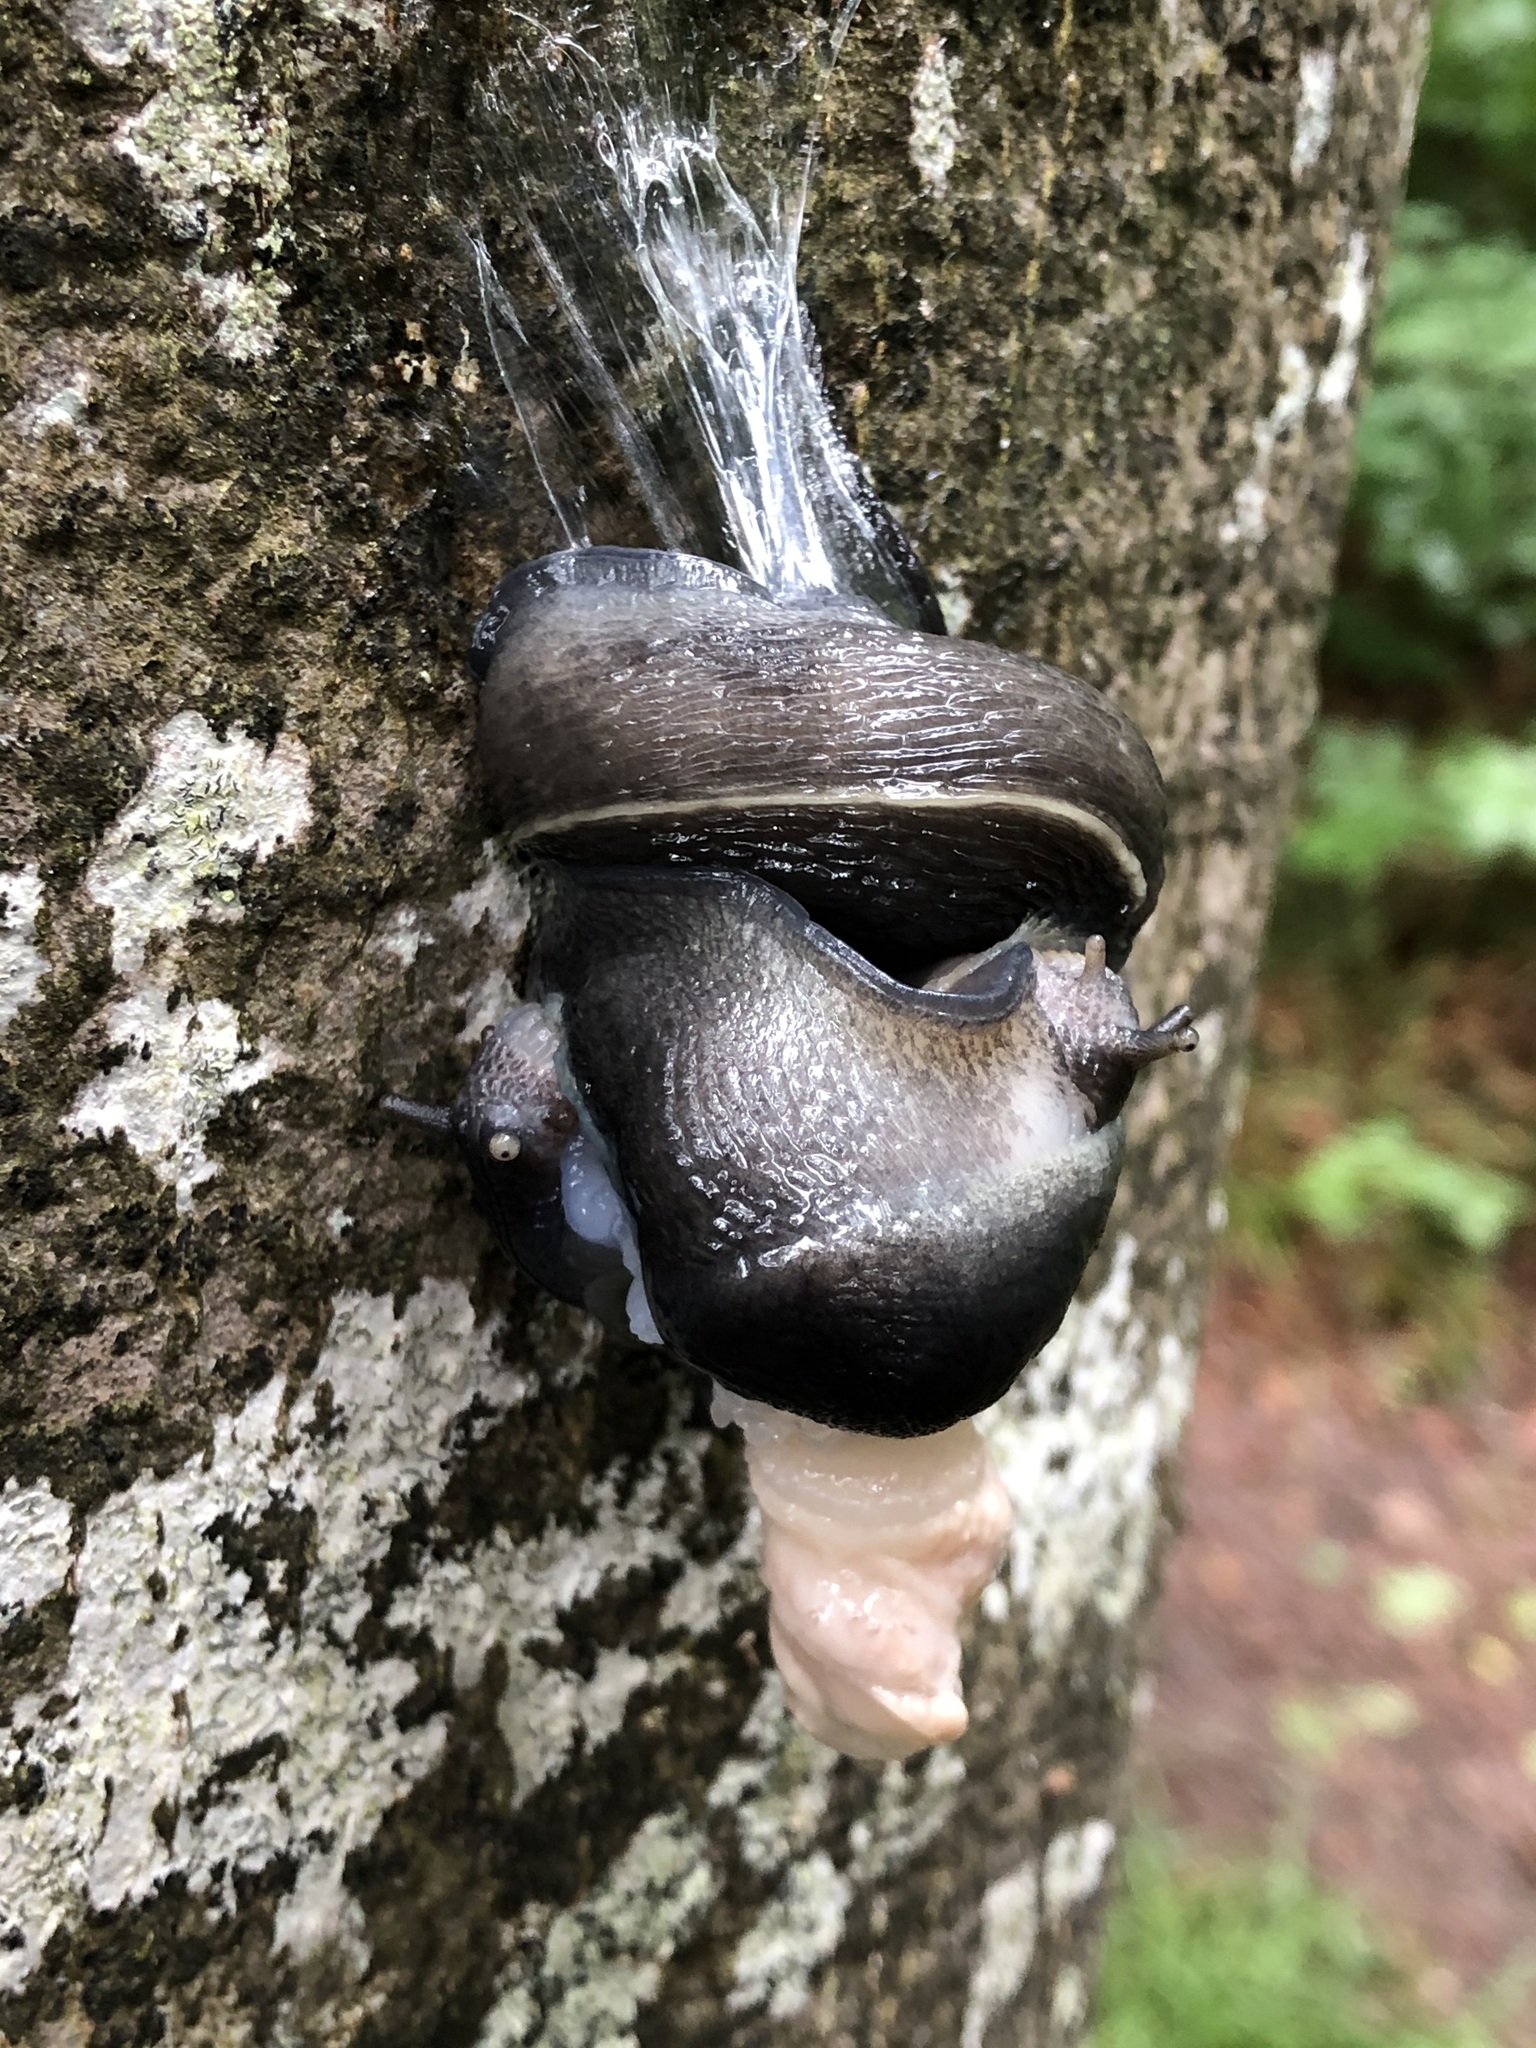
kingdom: Animalia
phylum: Mollusca
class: Gastropoda
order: Stylommatophora
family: Limacidae
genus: Limax
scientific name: Limax cinereoniger
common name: Ash-black slug
